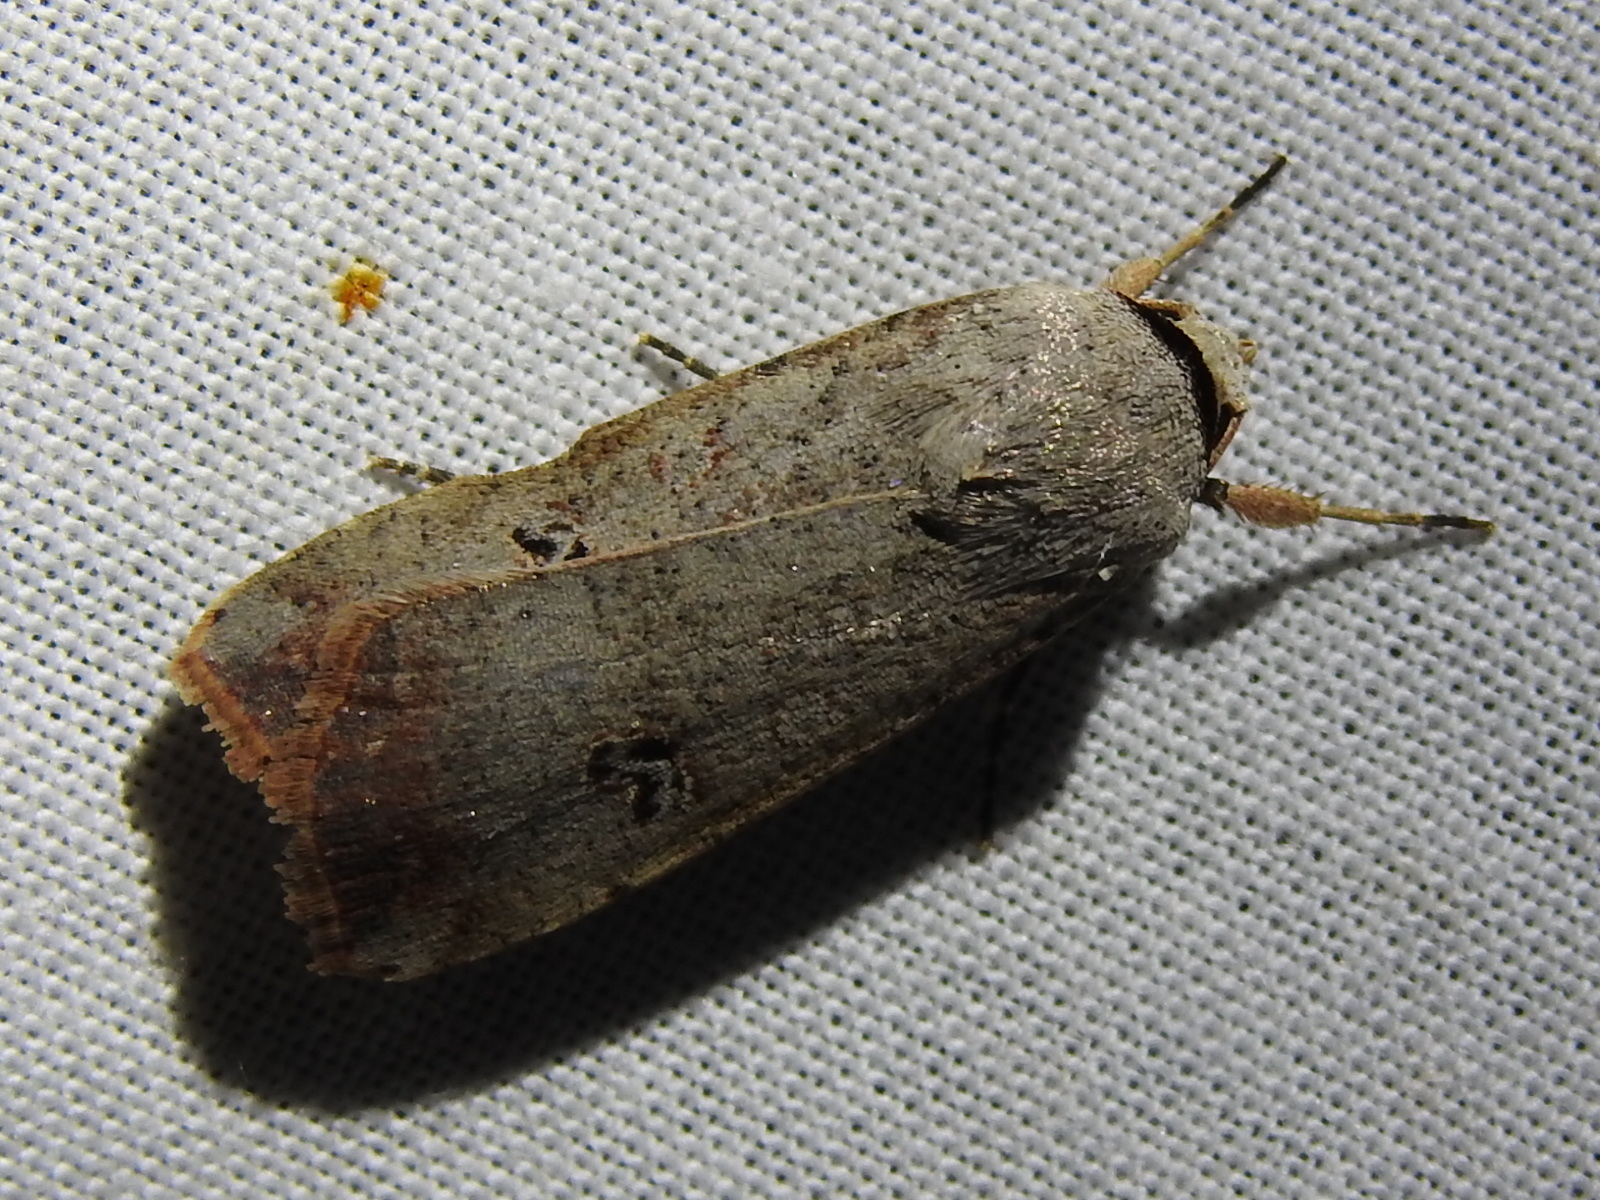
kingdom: Animalia
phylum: Arthropoda
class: Insecta
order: Lepidoptera
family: Noctuidae
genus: Anicla
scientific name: Anicla infecta
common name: Green cutworm
